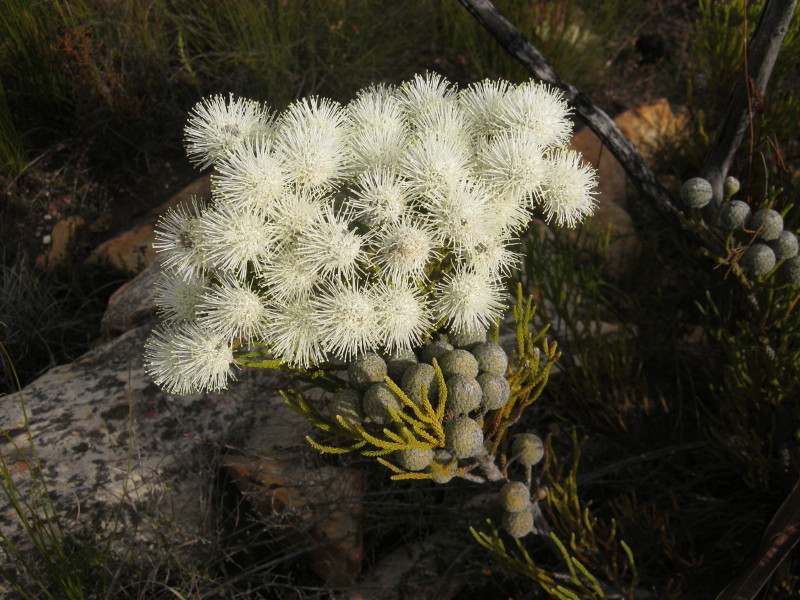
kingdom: Plantae
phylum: Tracheophyta
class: Magnoliopsida
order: Bruniales
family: Bruniaceae
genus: Brunia
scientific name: Brunia noduliflora
